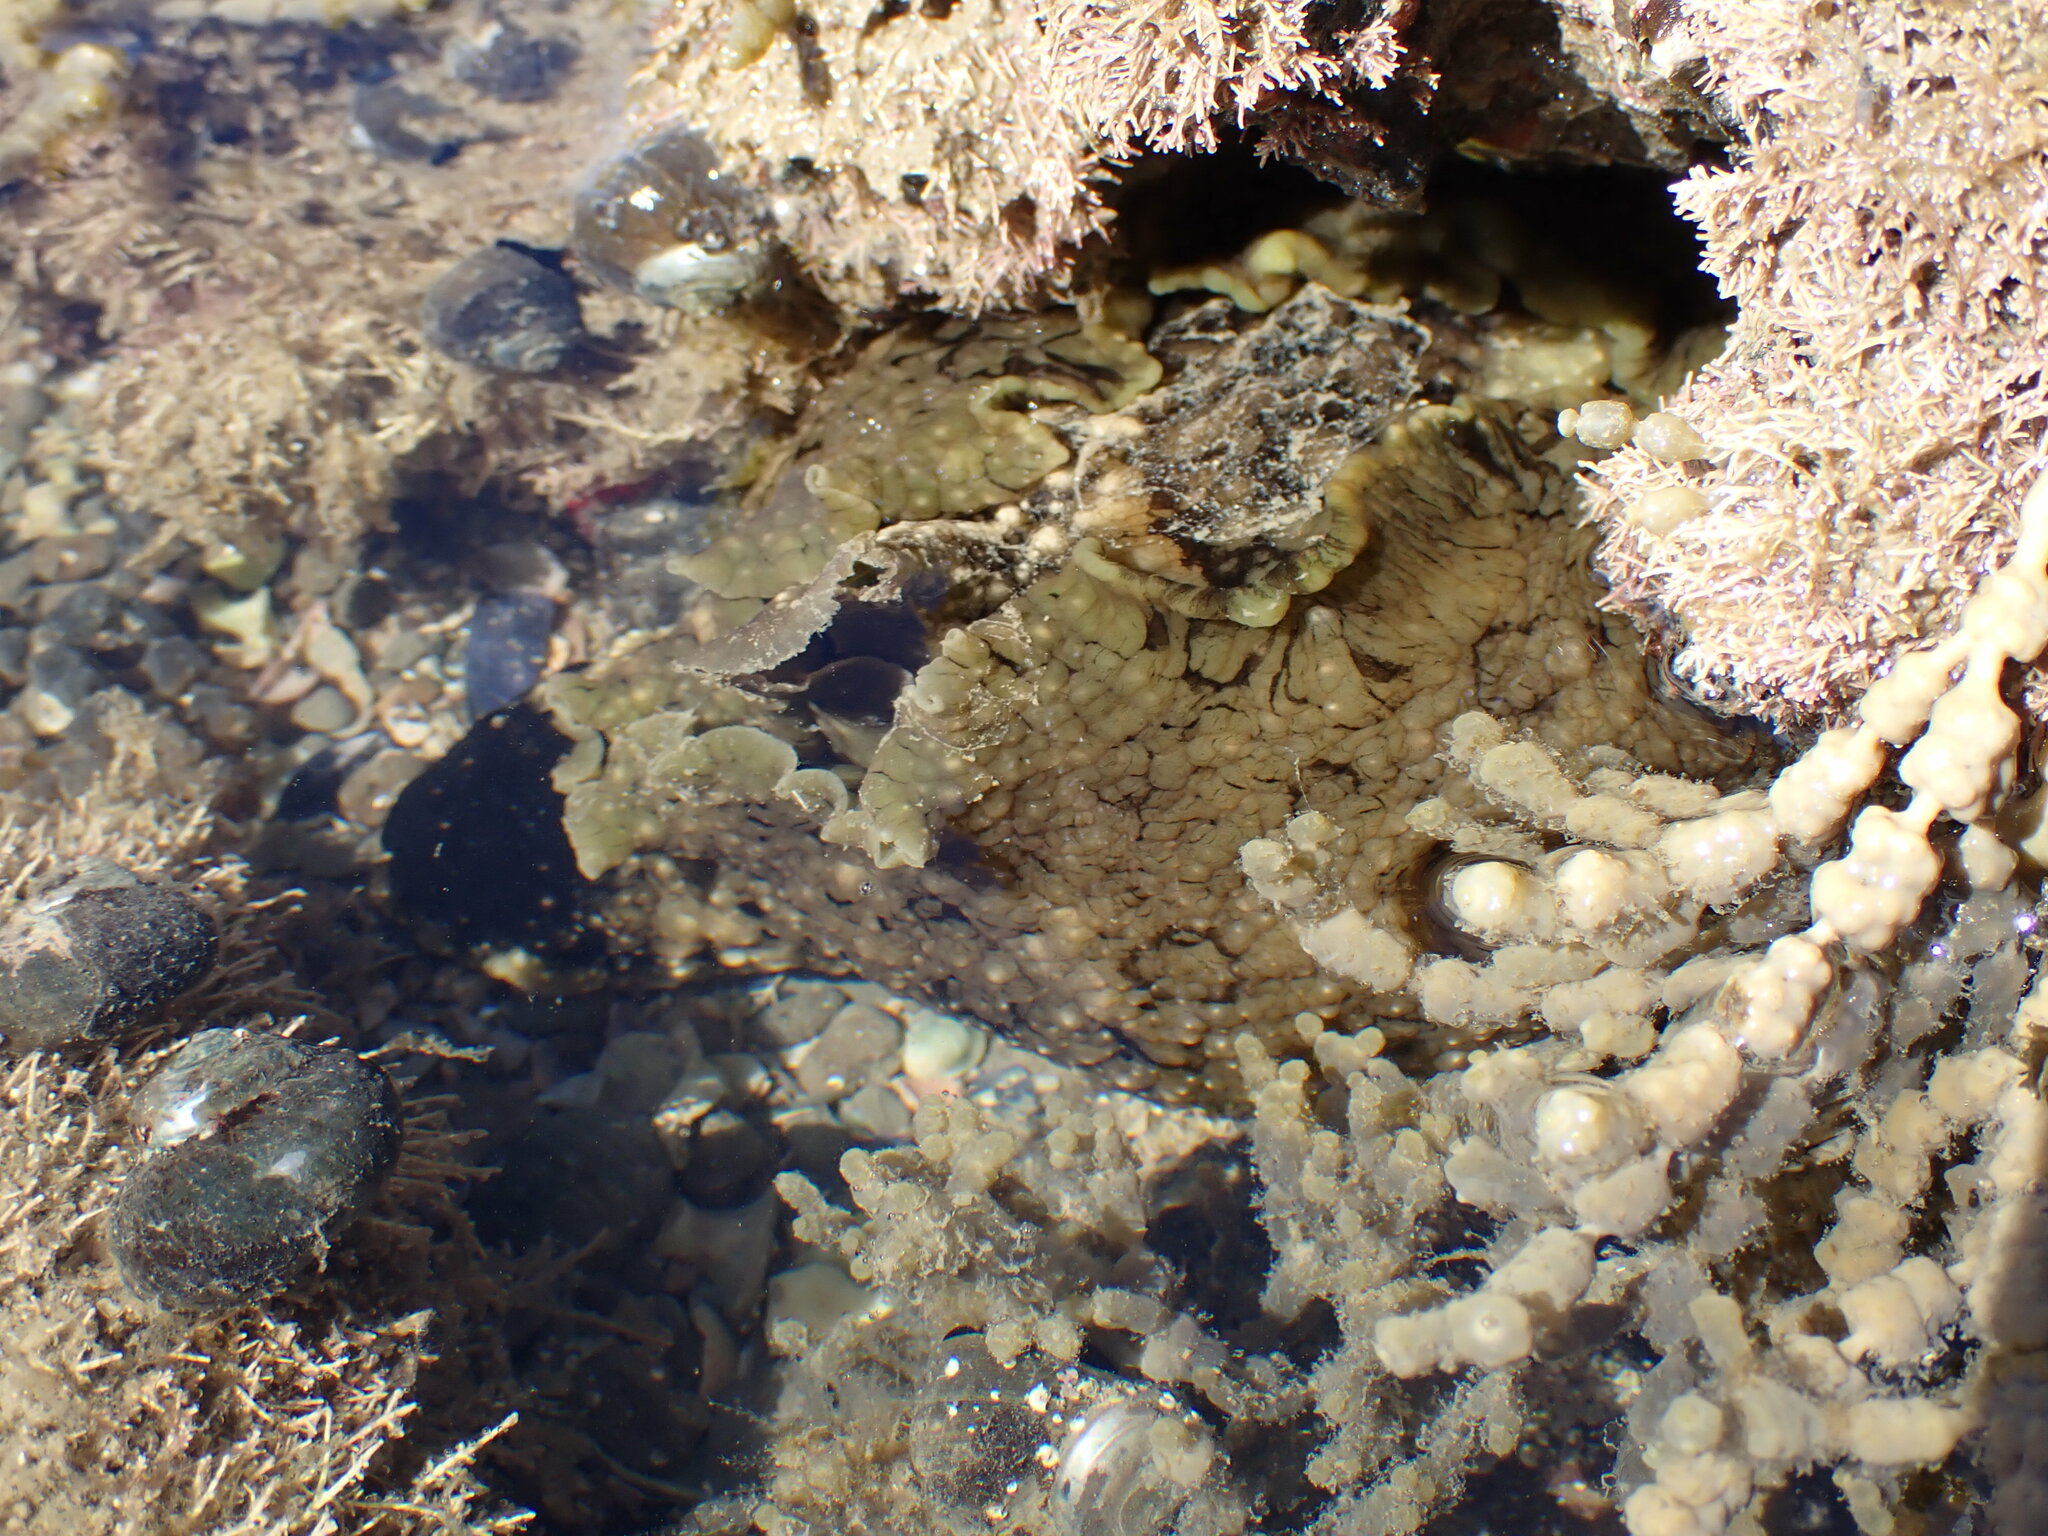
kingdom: Animalia
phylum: Mollusca
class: Gastropoda
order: Aplysiida
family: Aplysiidae
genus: Aplysia
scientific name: Aplysia argus
